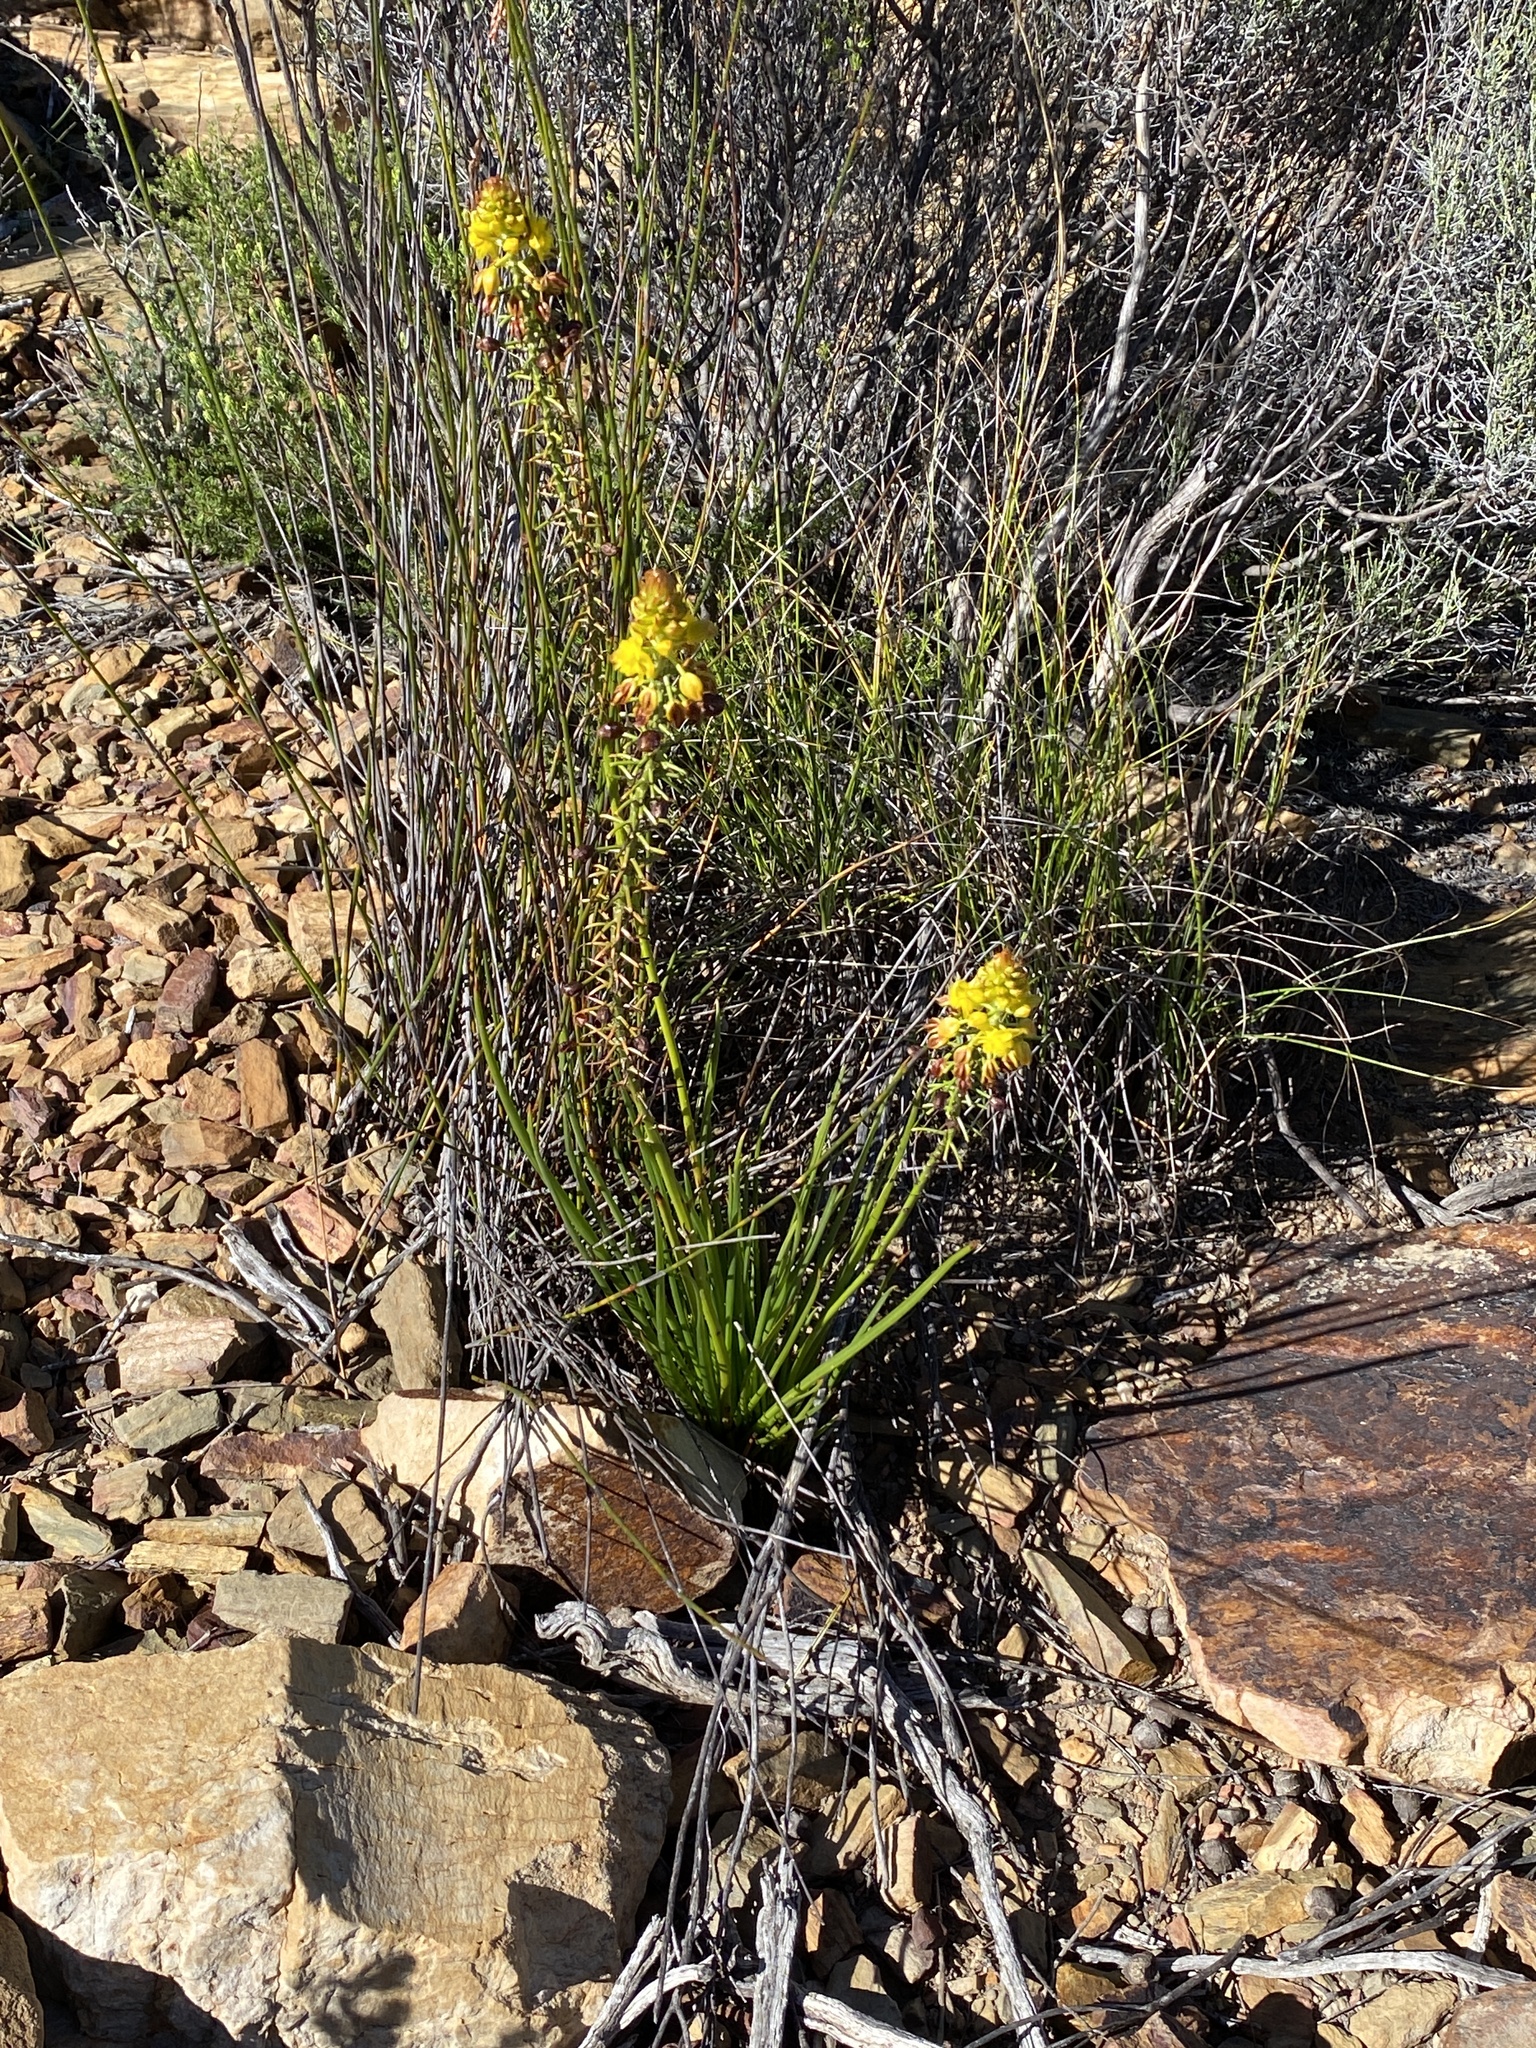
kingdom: Plantae
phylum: Tracheophyta
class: Liliopsida
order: Asparagales
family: Asphodelaceae
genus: Bulbine
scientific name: Bulbine abyssinica
